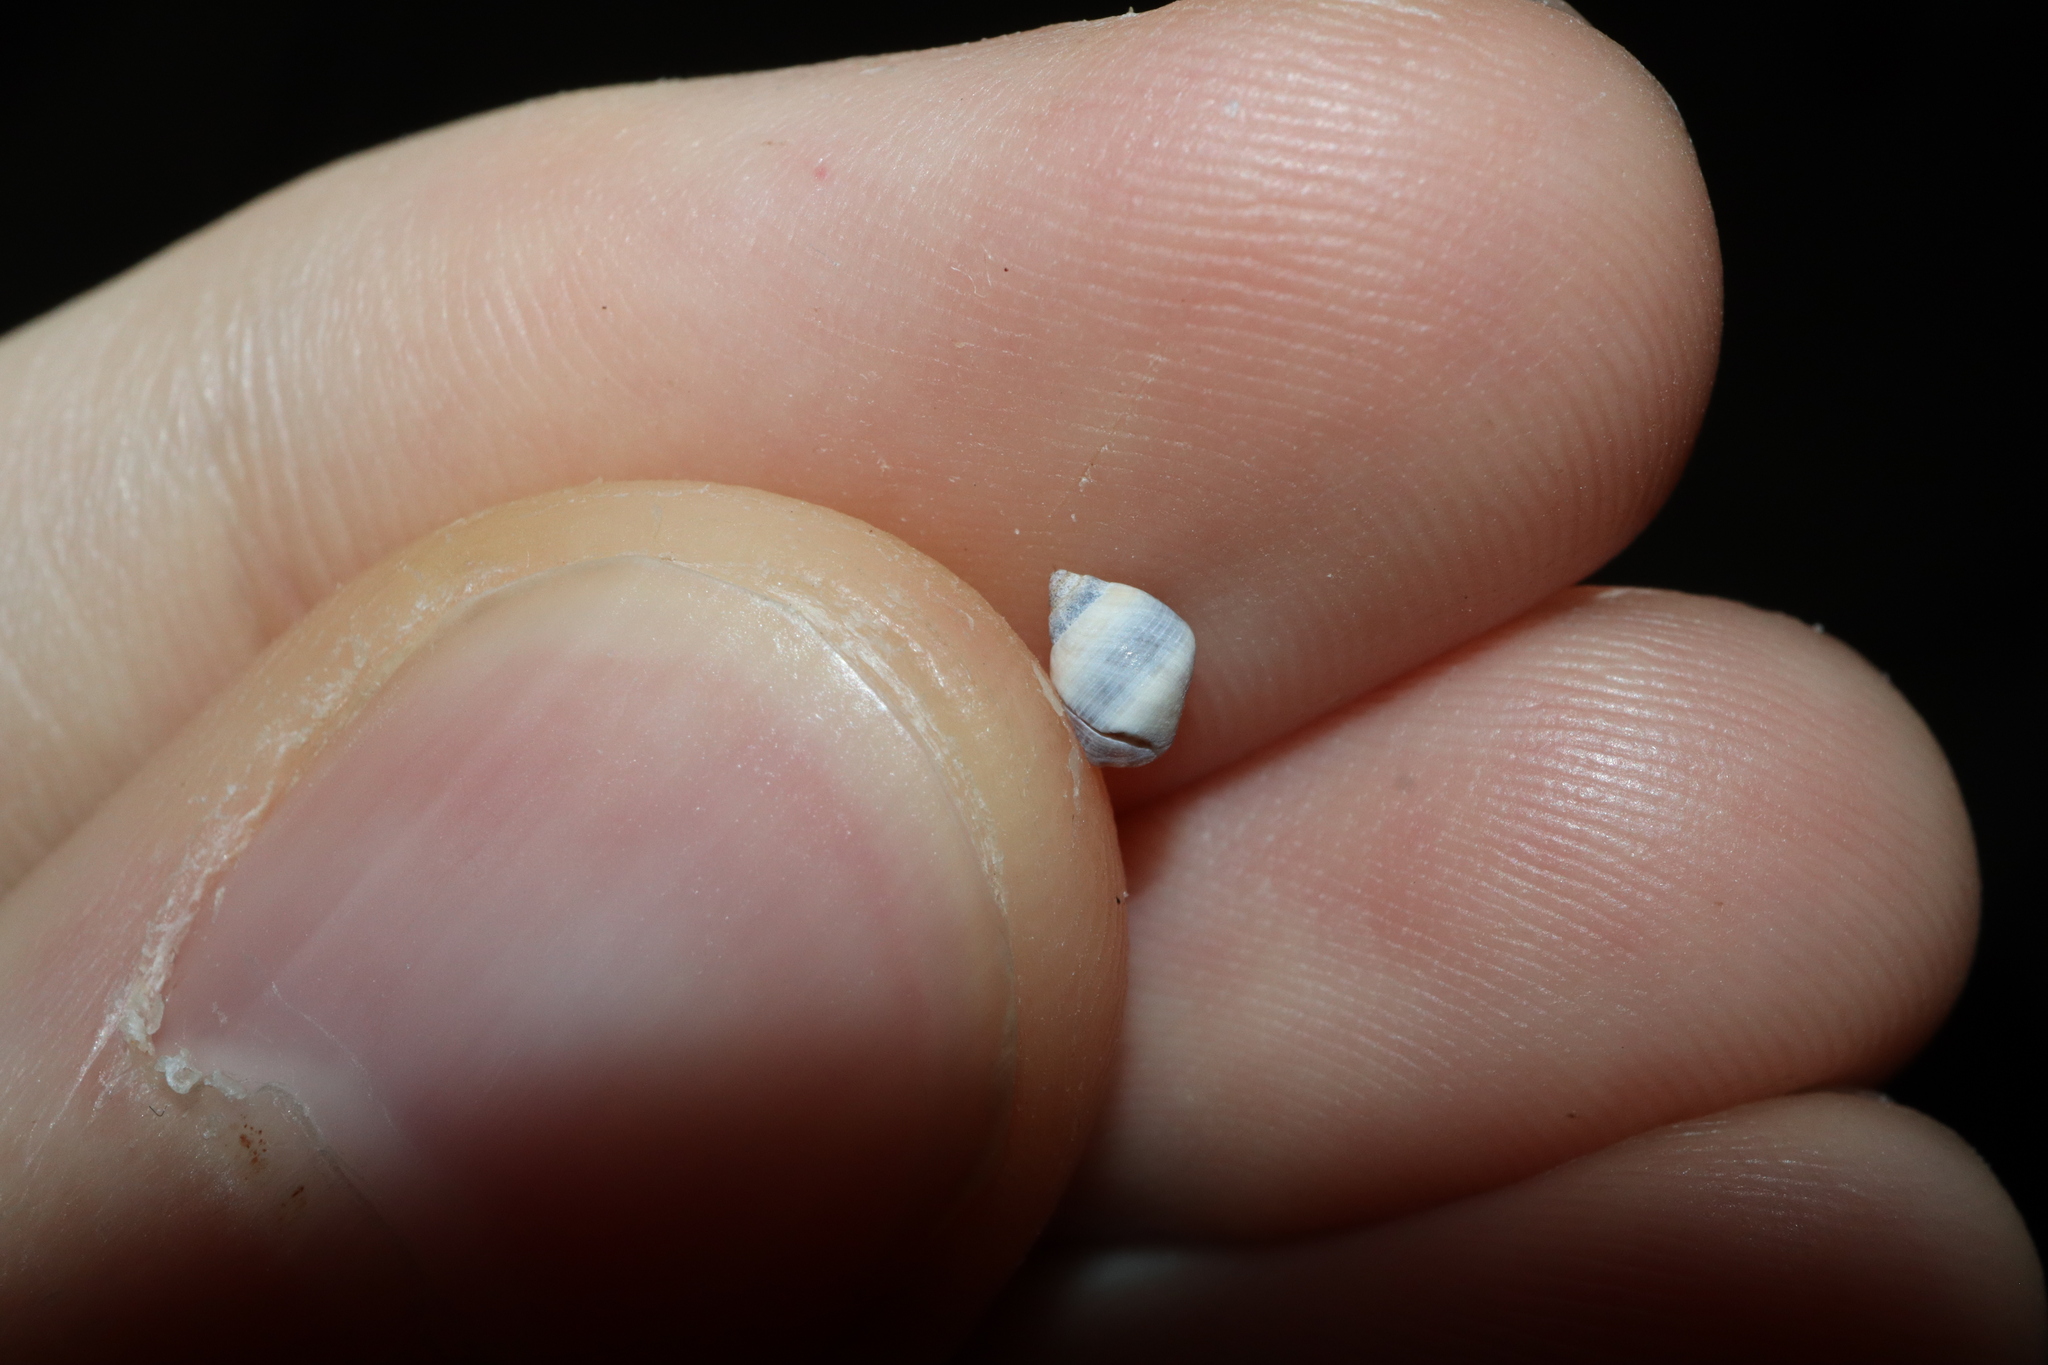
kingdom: Animalia
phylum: Mollusca
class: Gastropoda
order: Littorinimorpha
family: Littorinidae
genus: Austrolittorina
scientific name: Austrolittorina unifasciata
